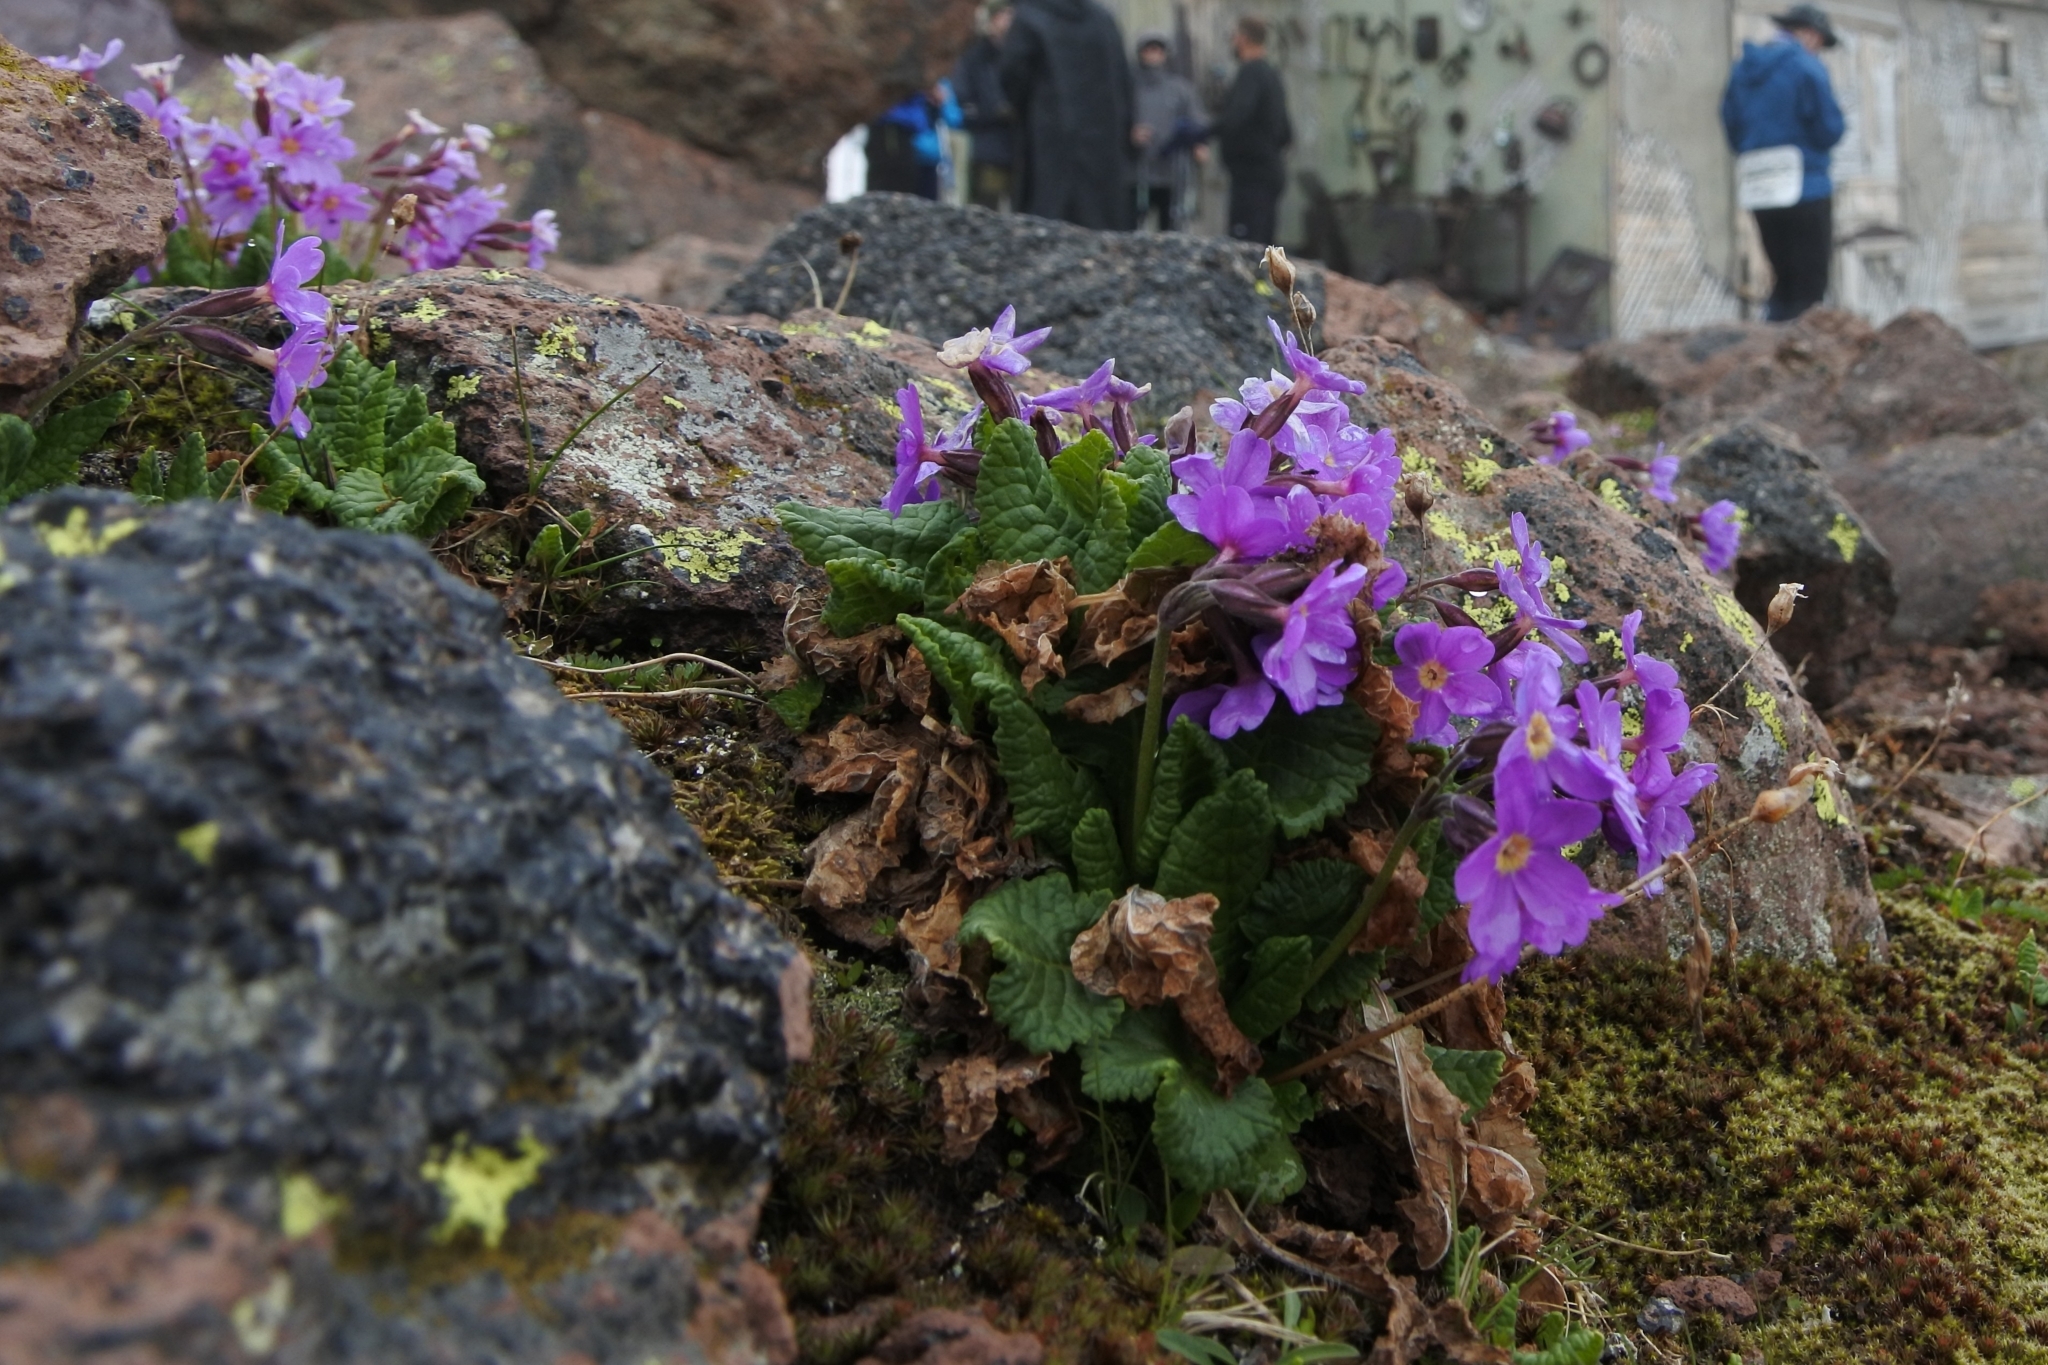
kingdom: Plantae
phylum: Tracheophyta
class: Magnoliopsida
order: Ericales
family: Primulaceae
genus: Primula
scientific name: Primula amoena
